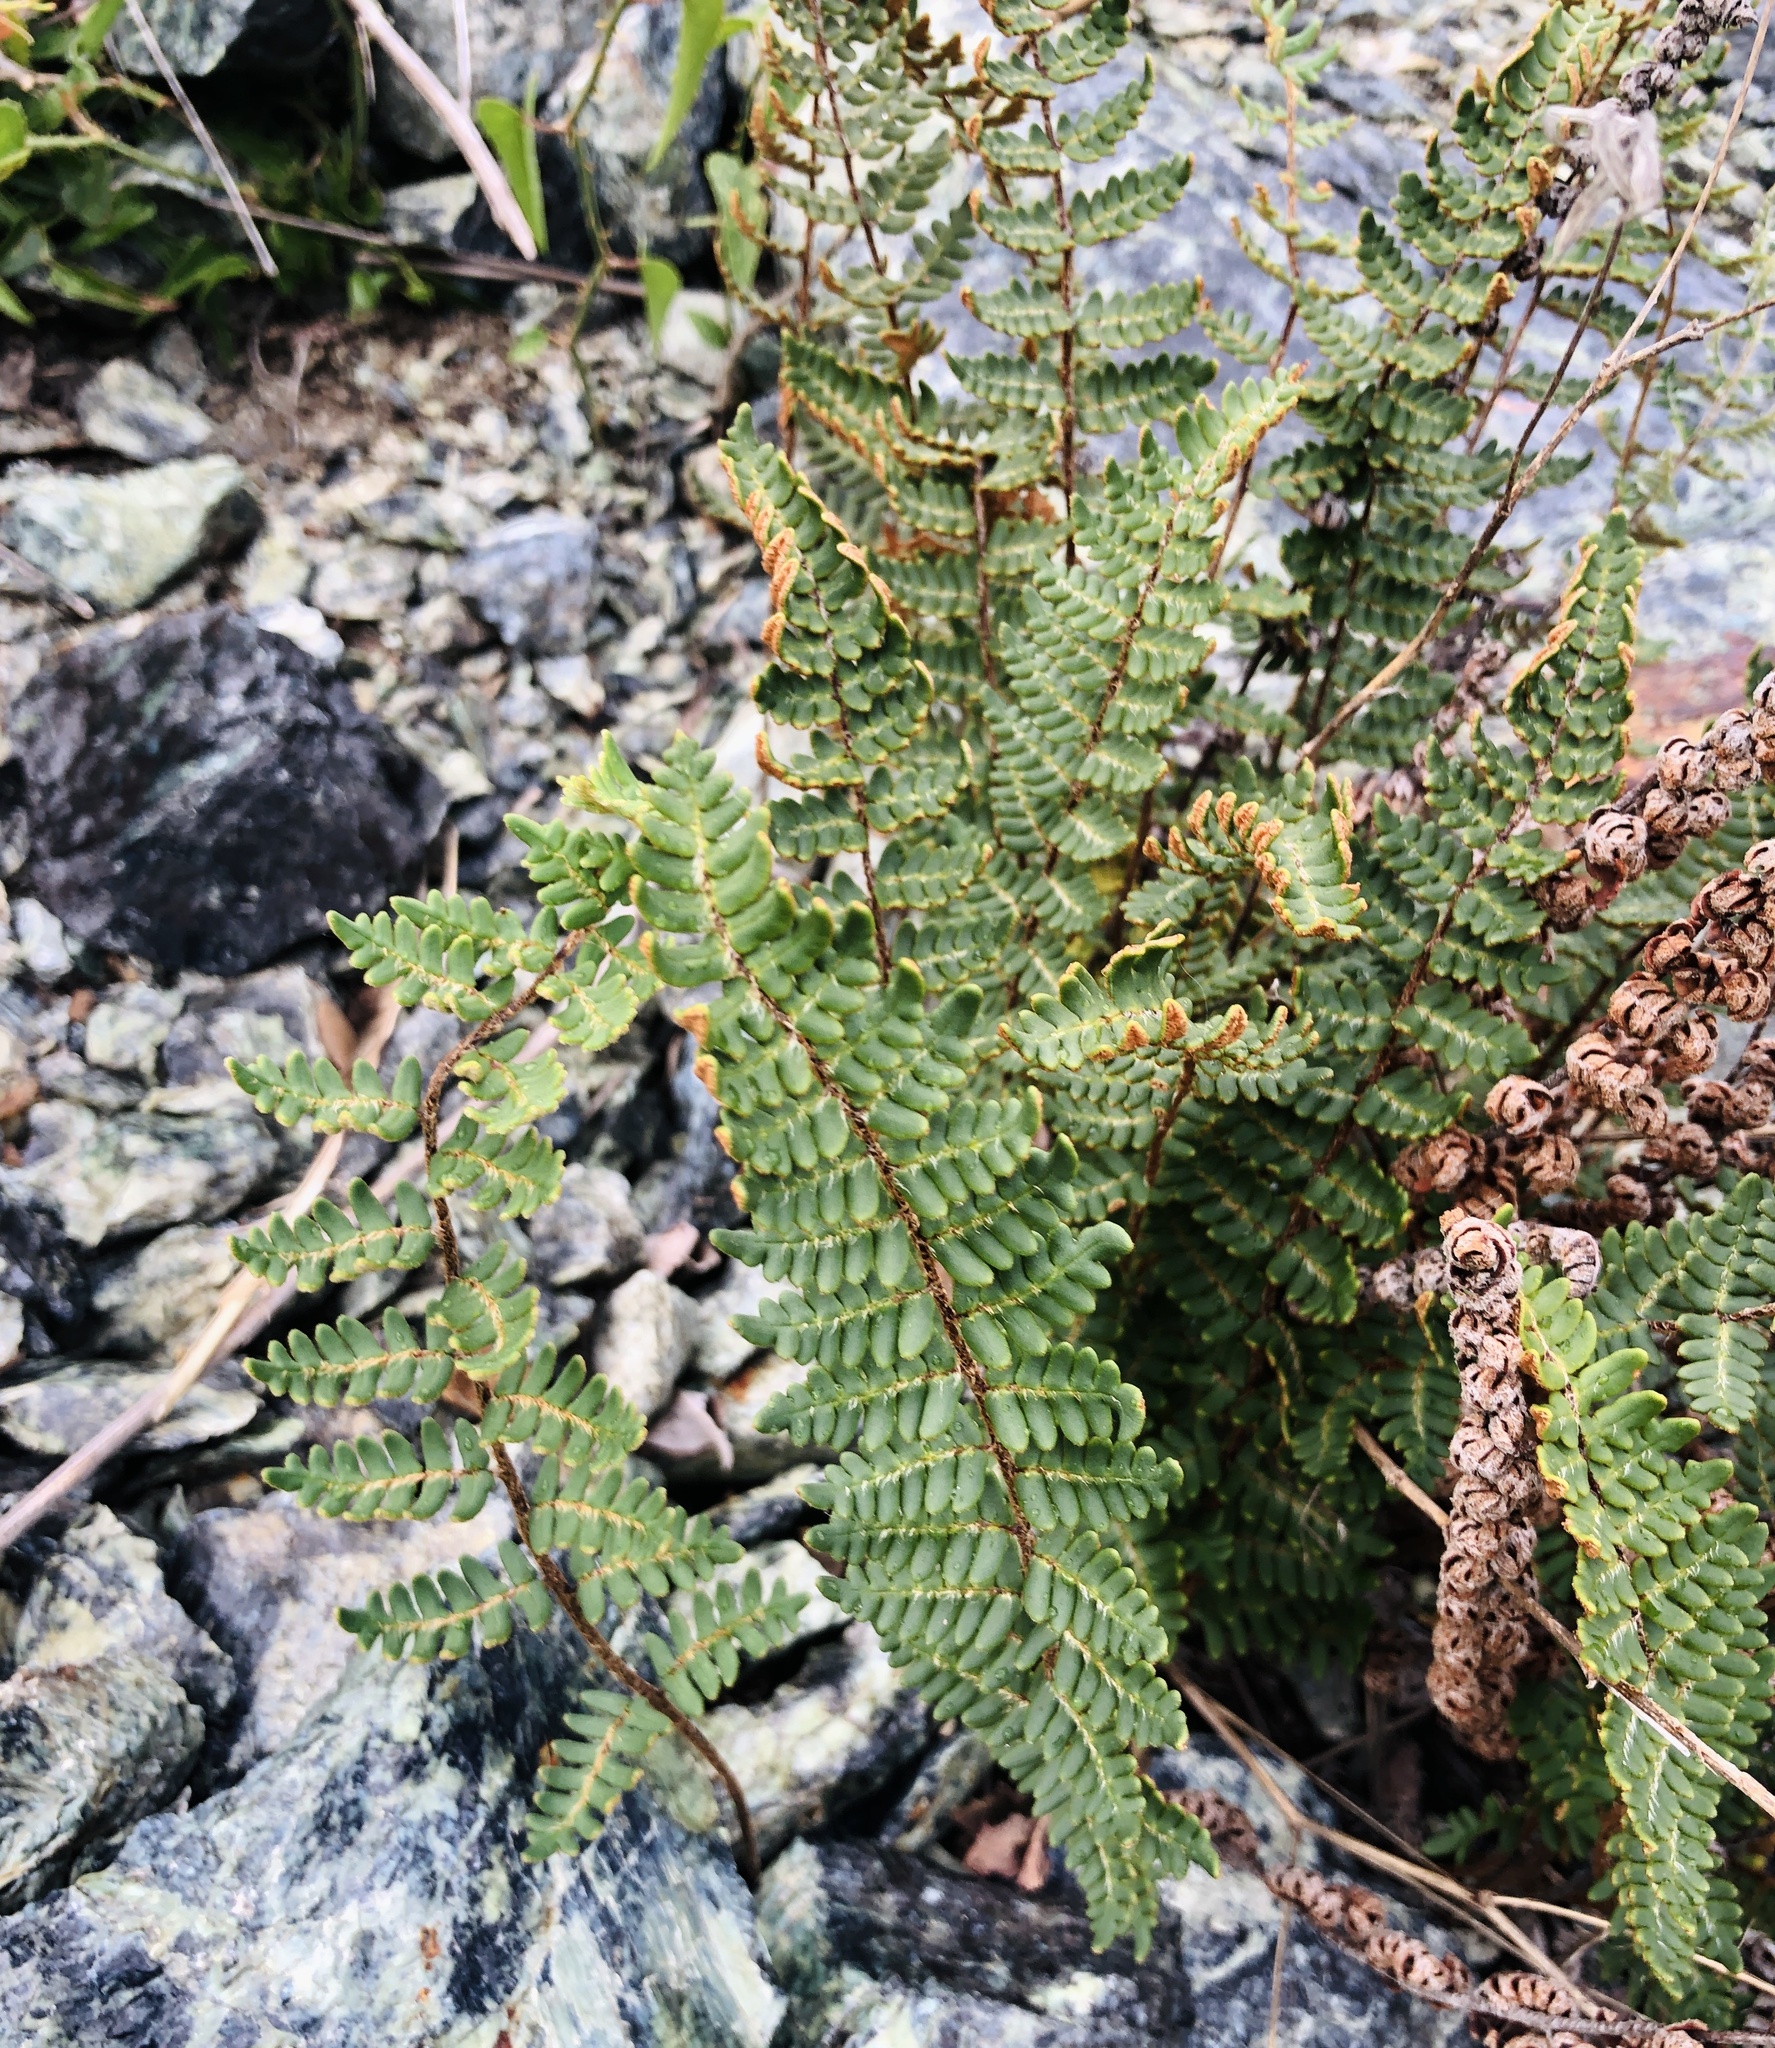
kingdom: Plantae
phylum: Tracheophyta
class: Polypodiopsida
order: Polypodiales
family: Pteridaceae
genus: Paragymnopteris
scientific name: Paragymnopteris marantae
